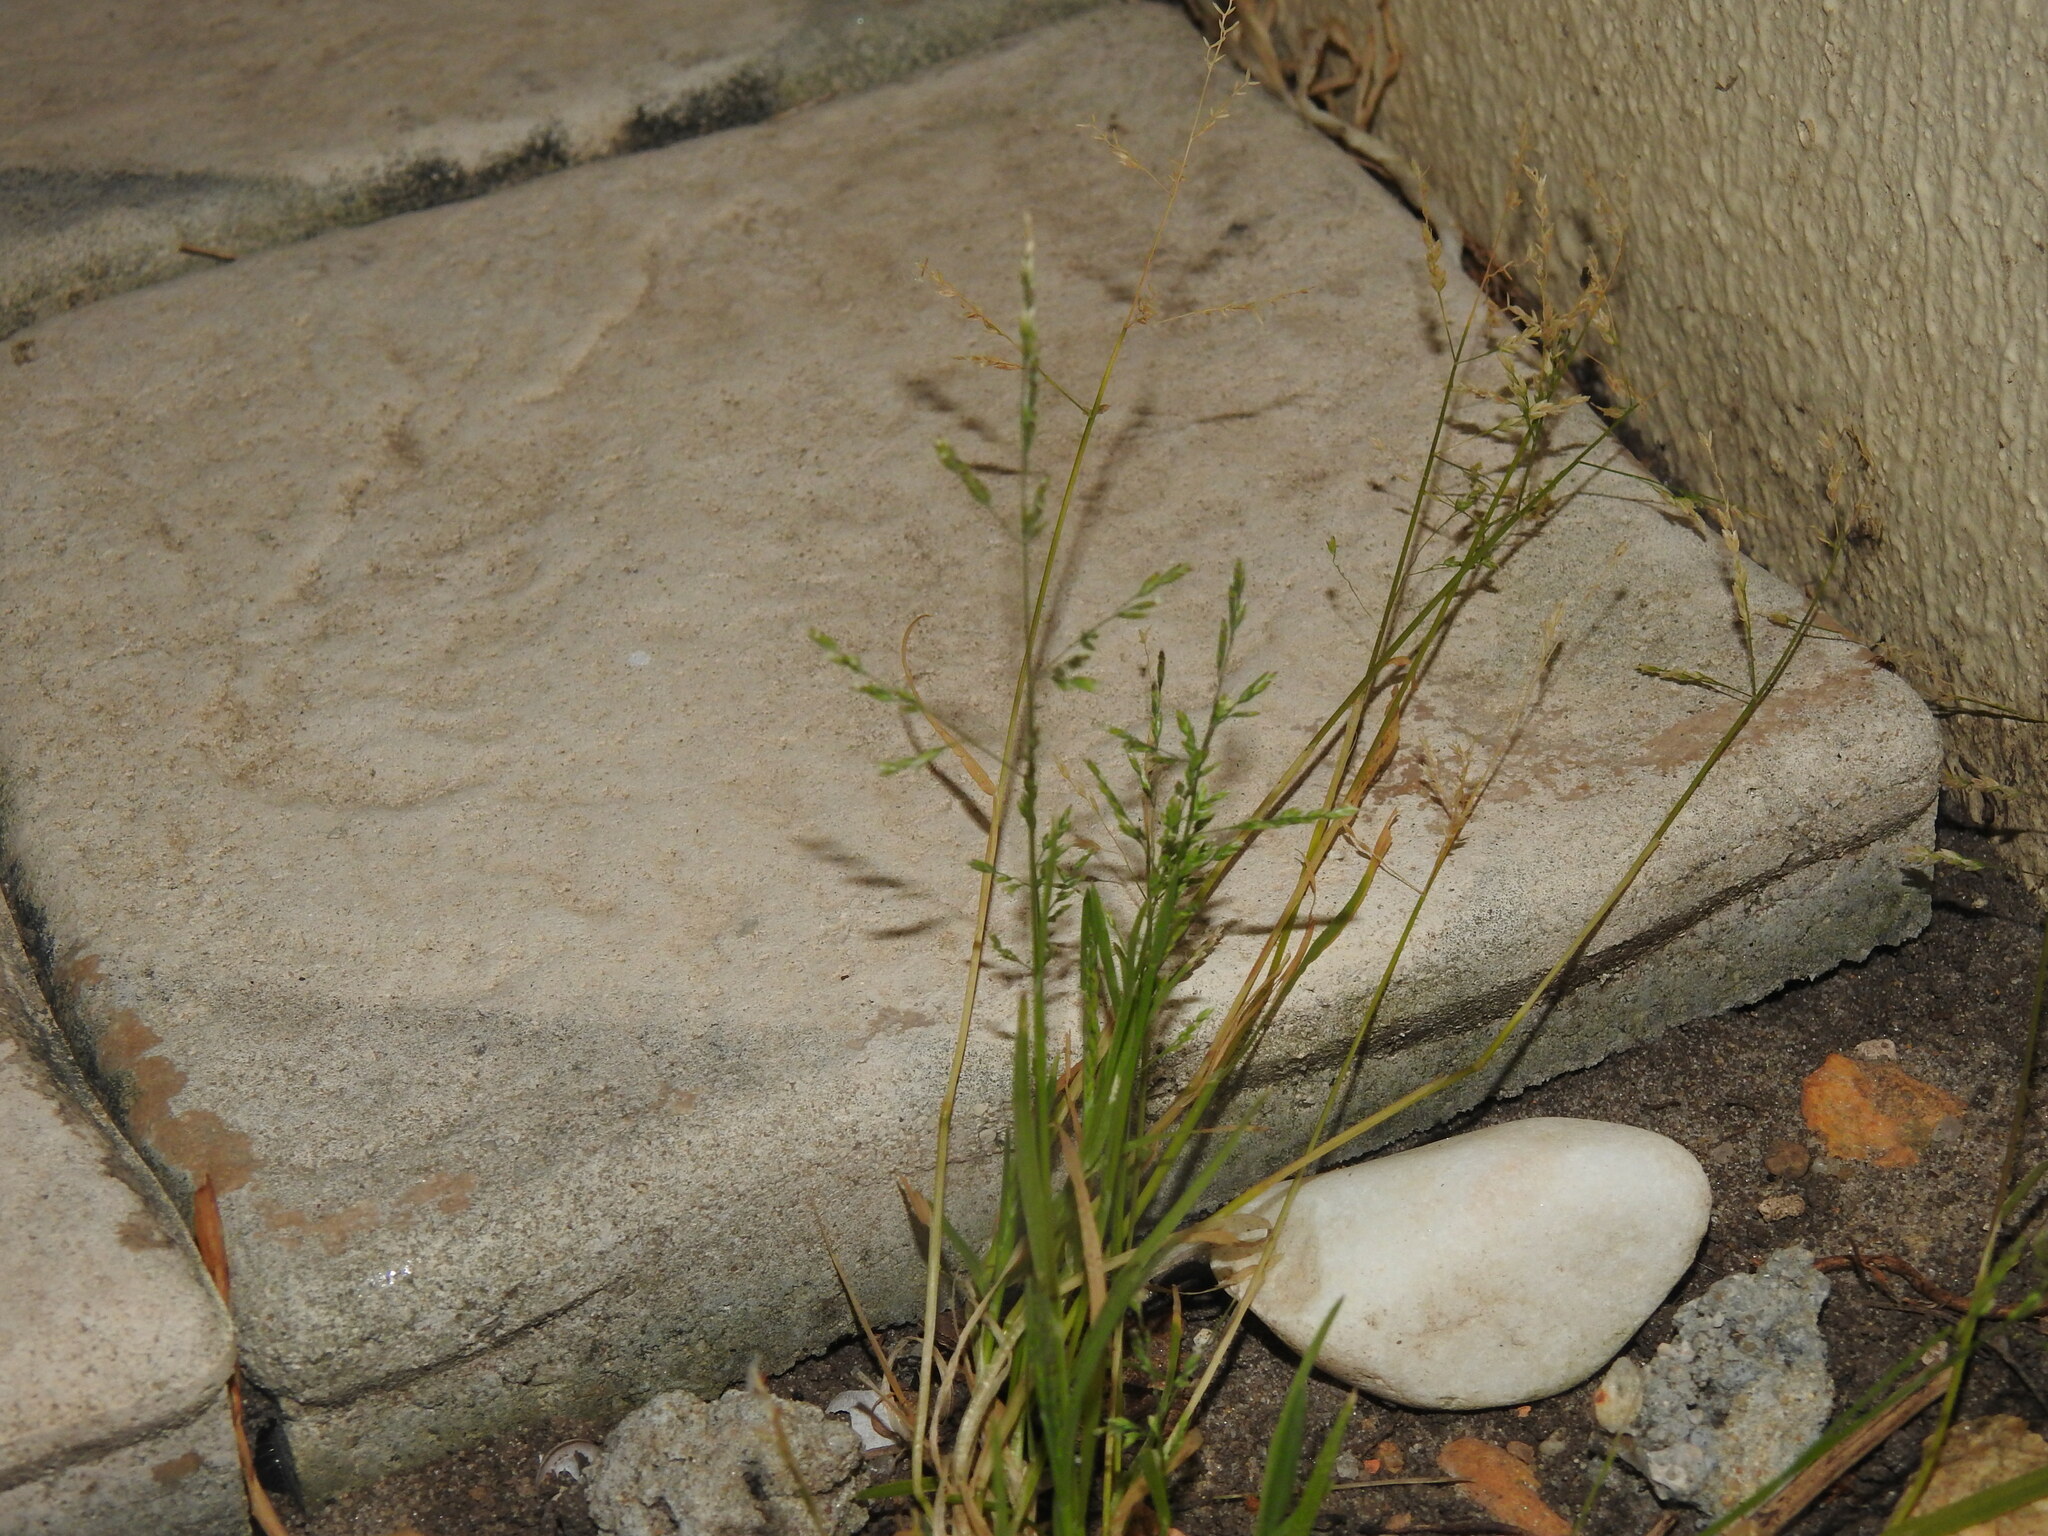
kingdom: Plantae
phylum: Tracheophyta
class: Liliopsida
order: Poales
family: Poaceae
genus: Poa
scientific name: Poa annua
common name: Annual bluegrass
